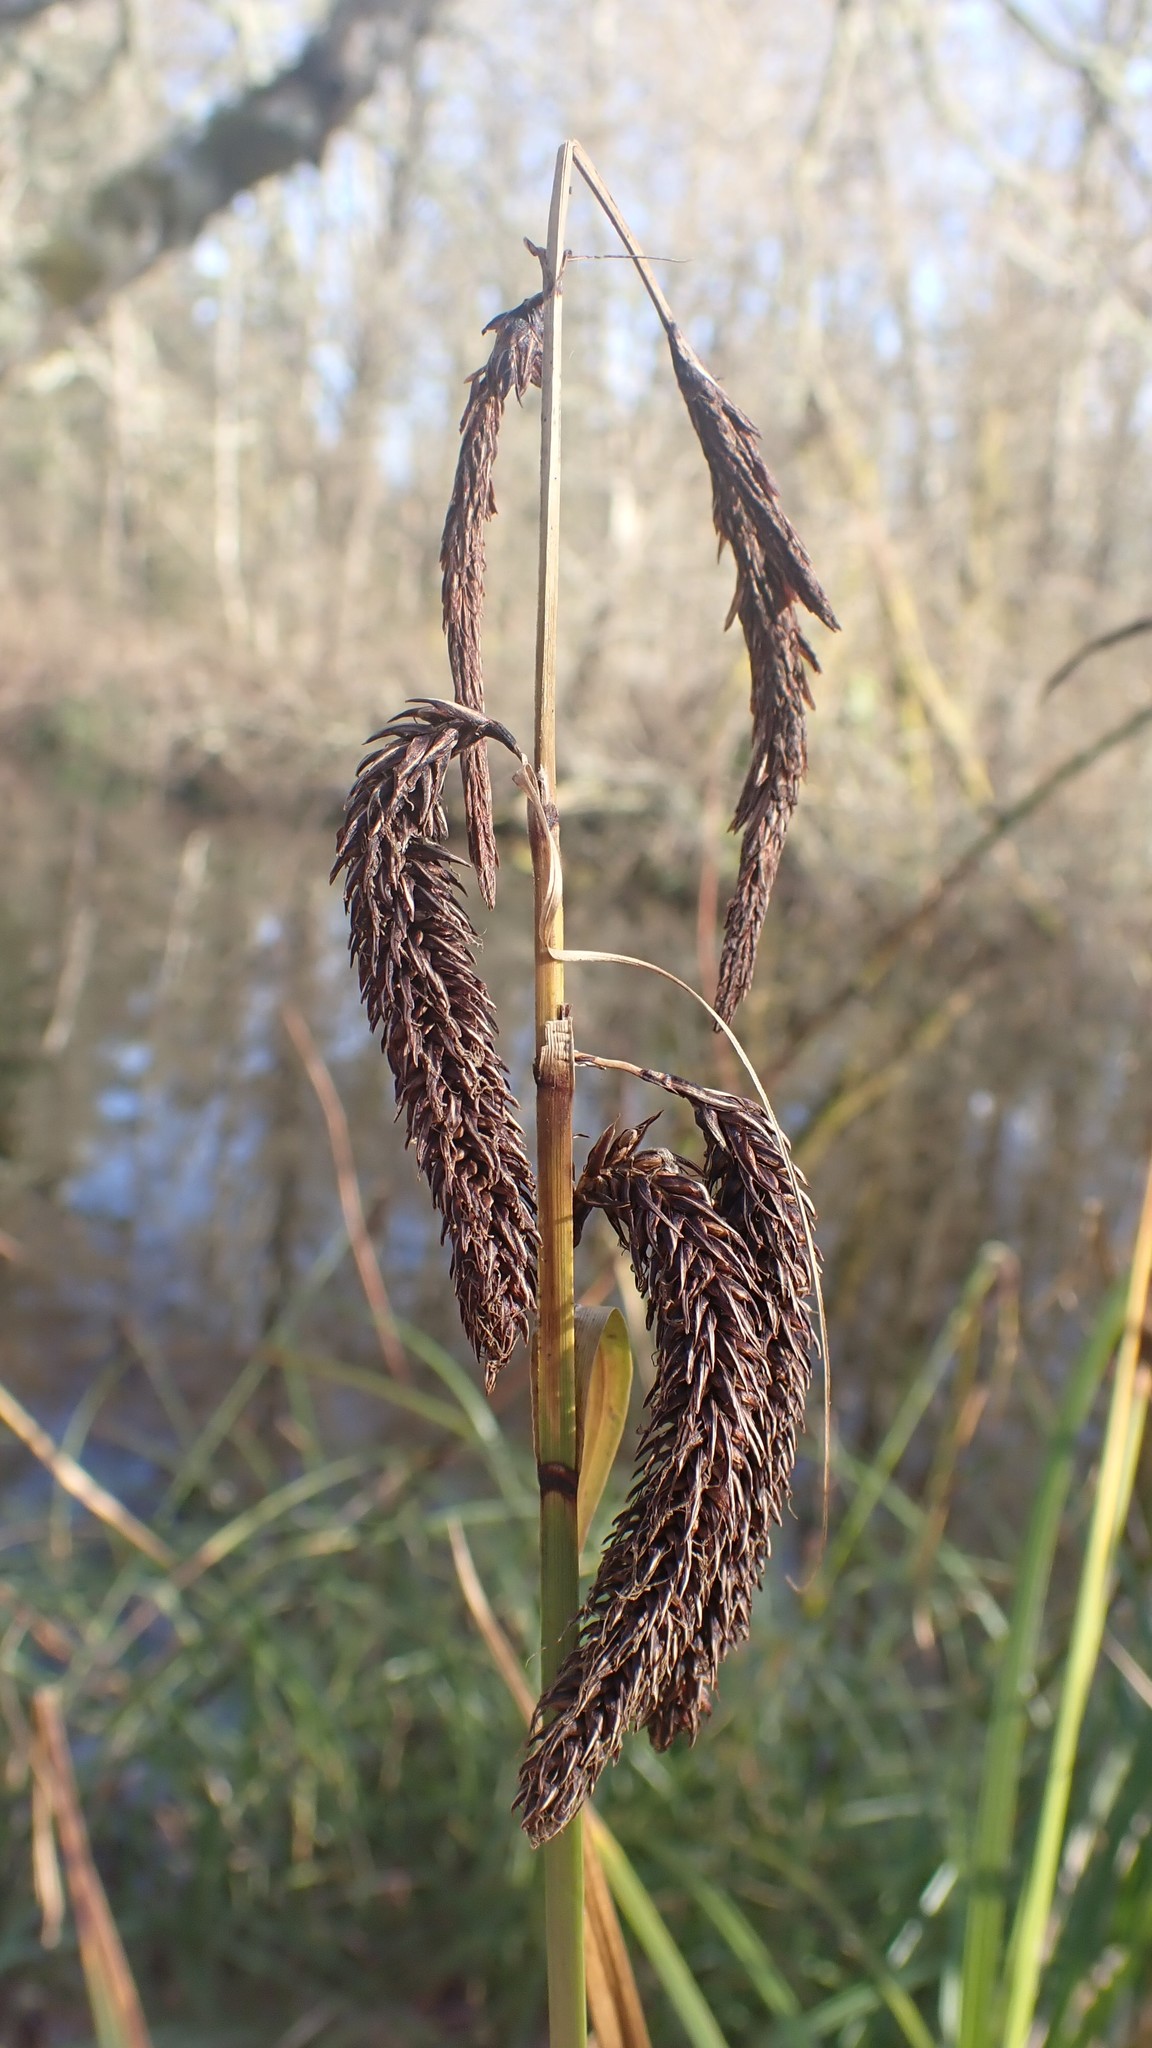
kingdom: Plantae
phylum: Tracheophyta
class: Liliopsida
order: Poales
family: Cyperaceae
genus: Carex
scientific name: Carex obnupta
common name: Slough sedge
